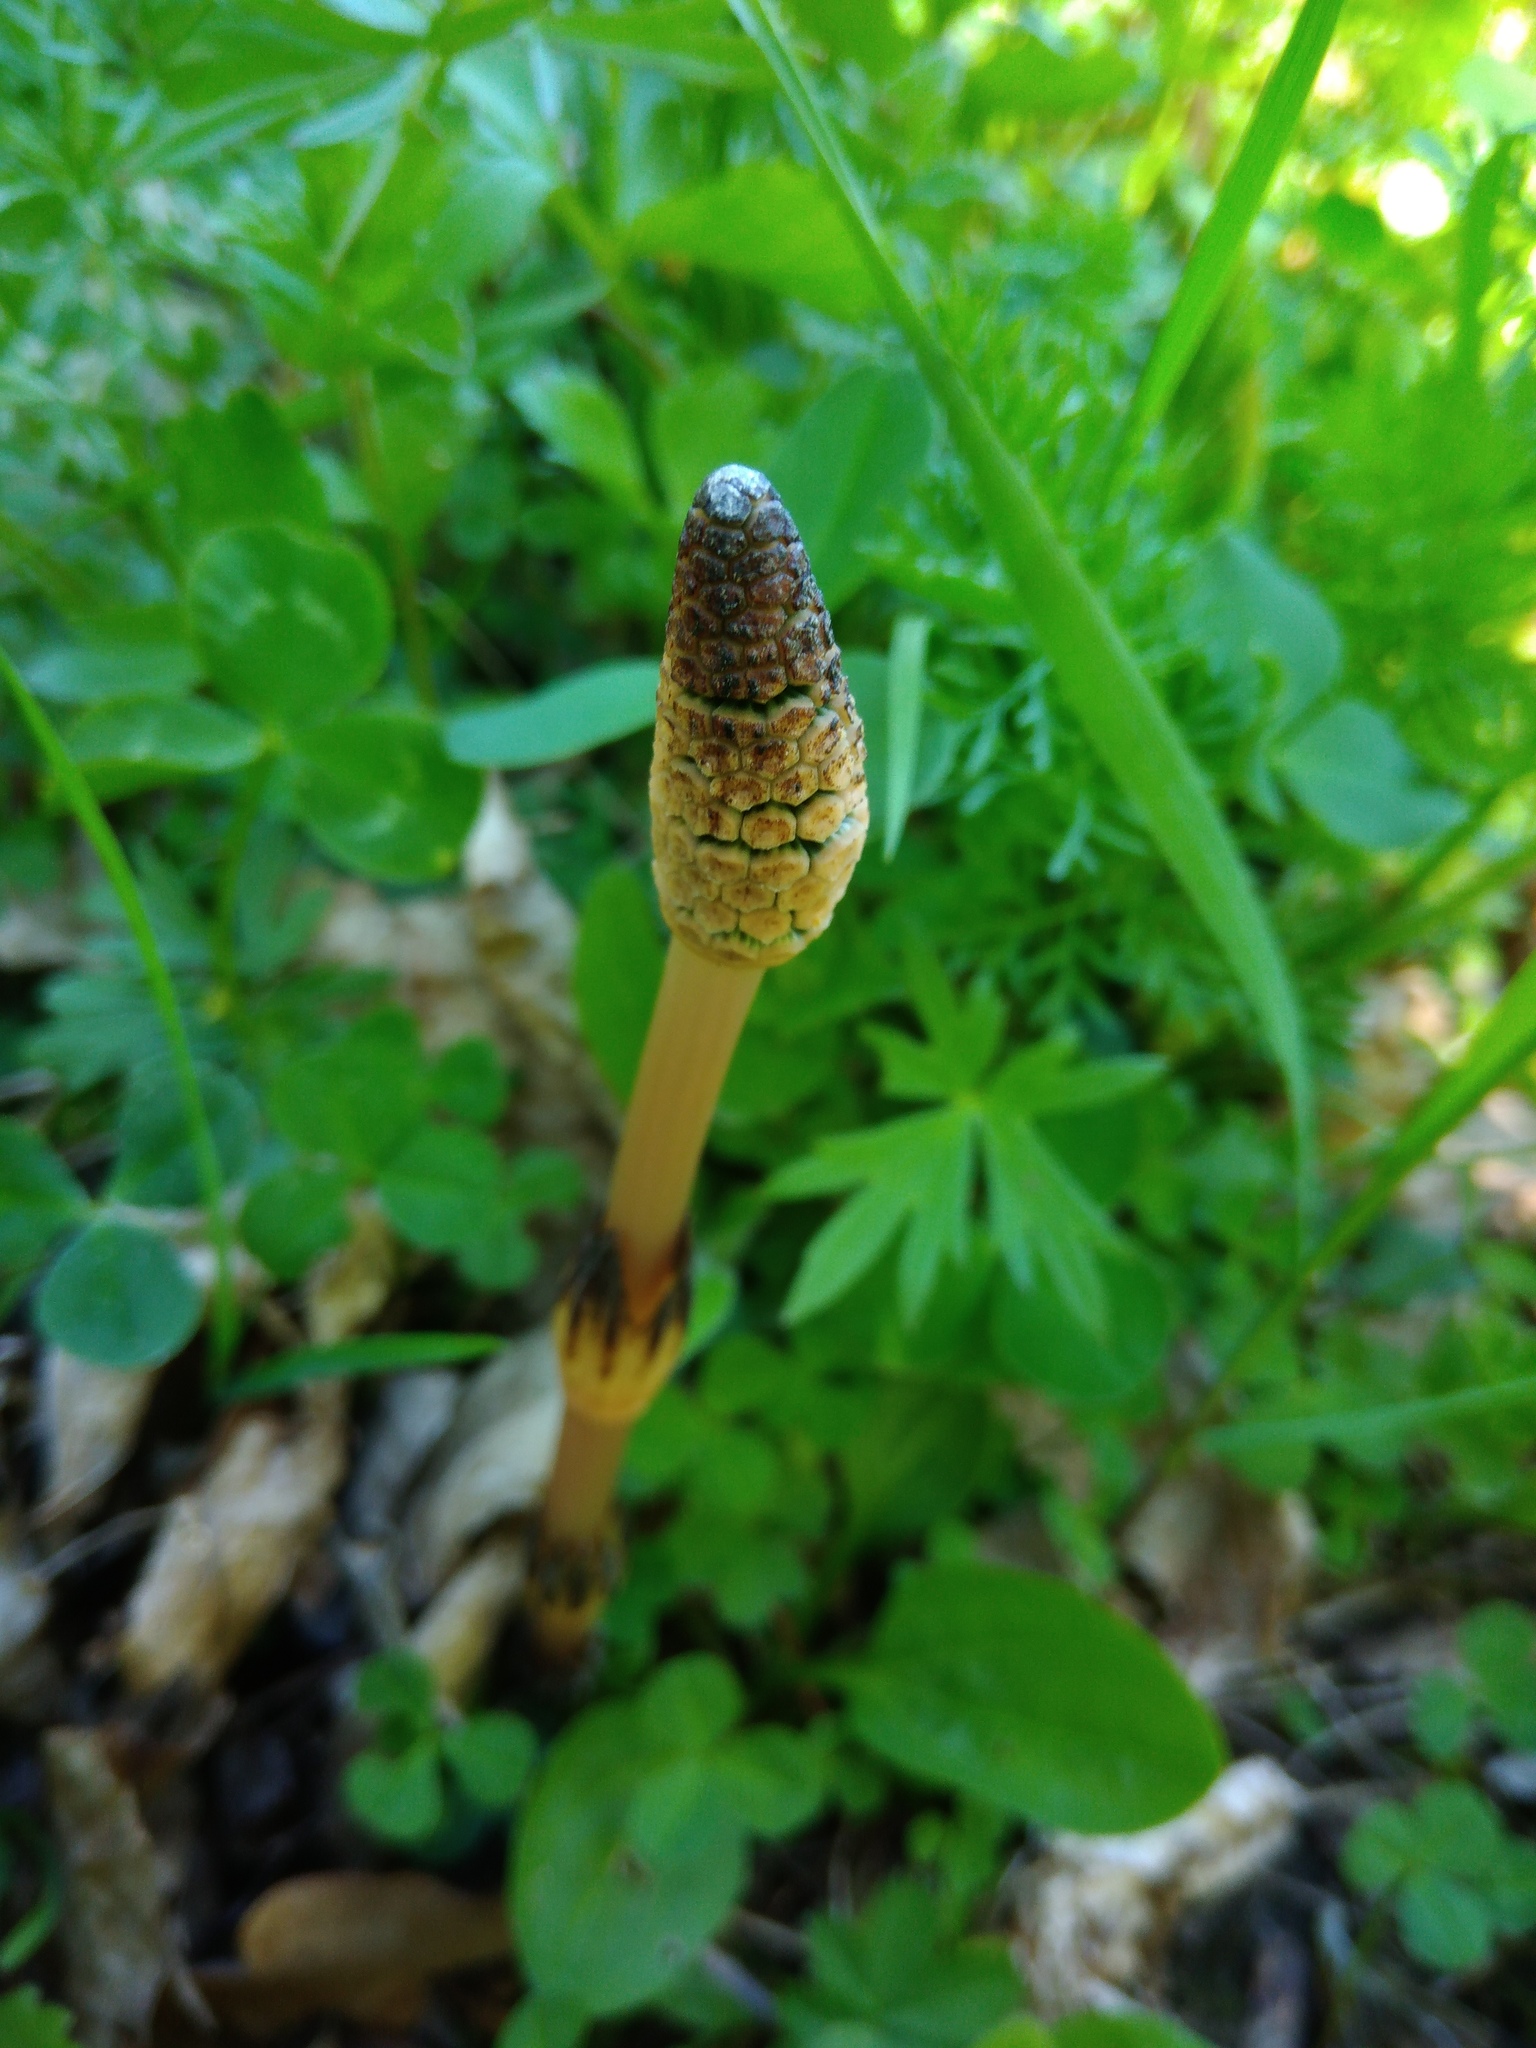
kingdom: Plantae
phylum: Tracheophyta
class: Polypodiopsida
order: Equisetales
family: Equisetaceae
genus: Equisetum
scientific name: Equisetum arvense
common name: Field horsetail
